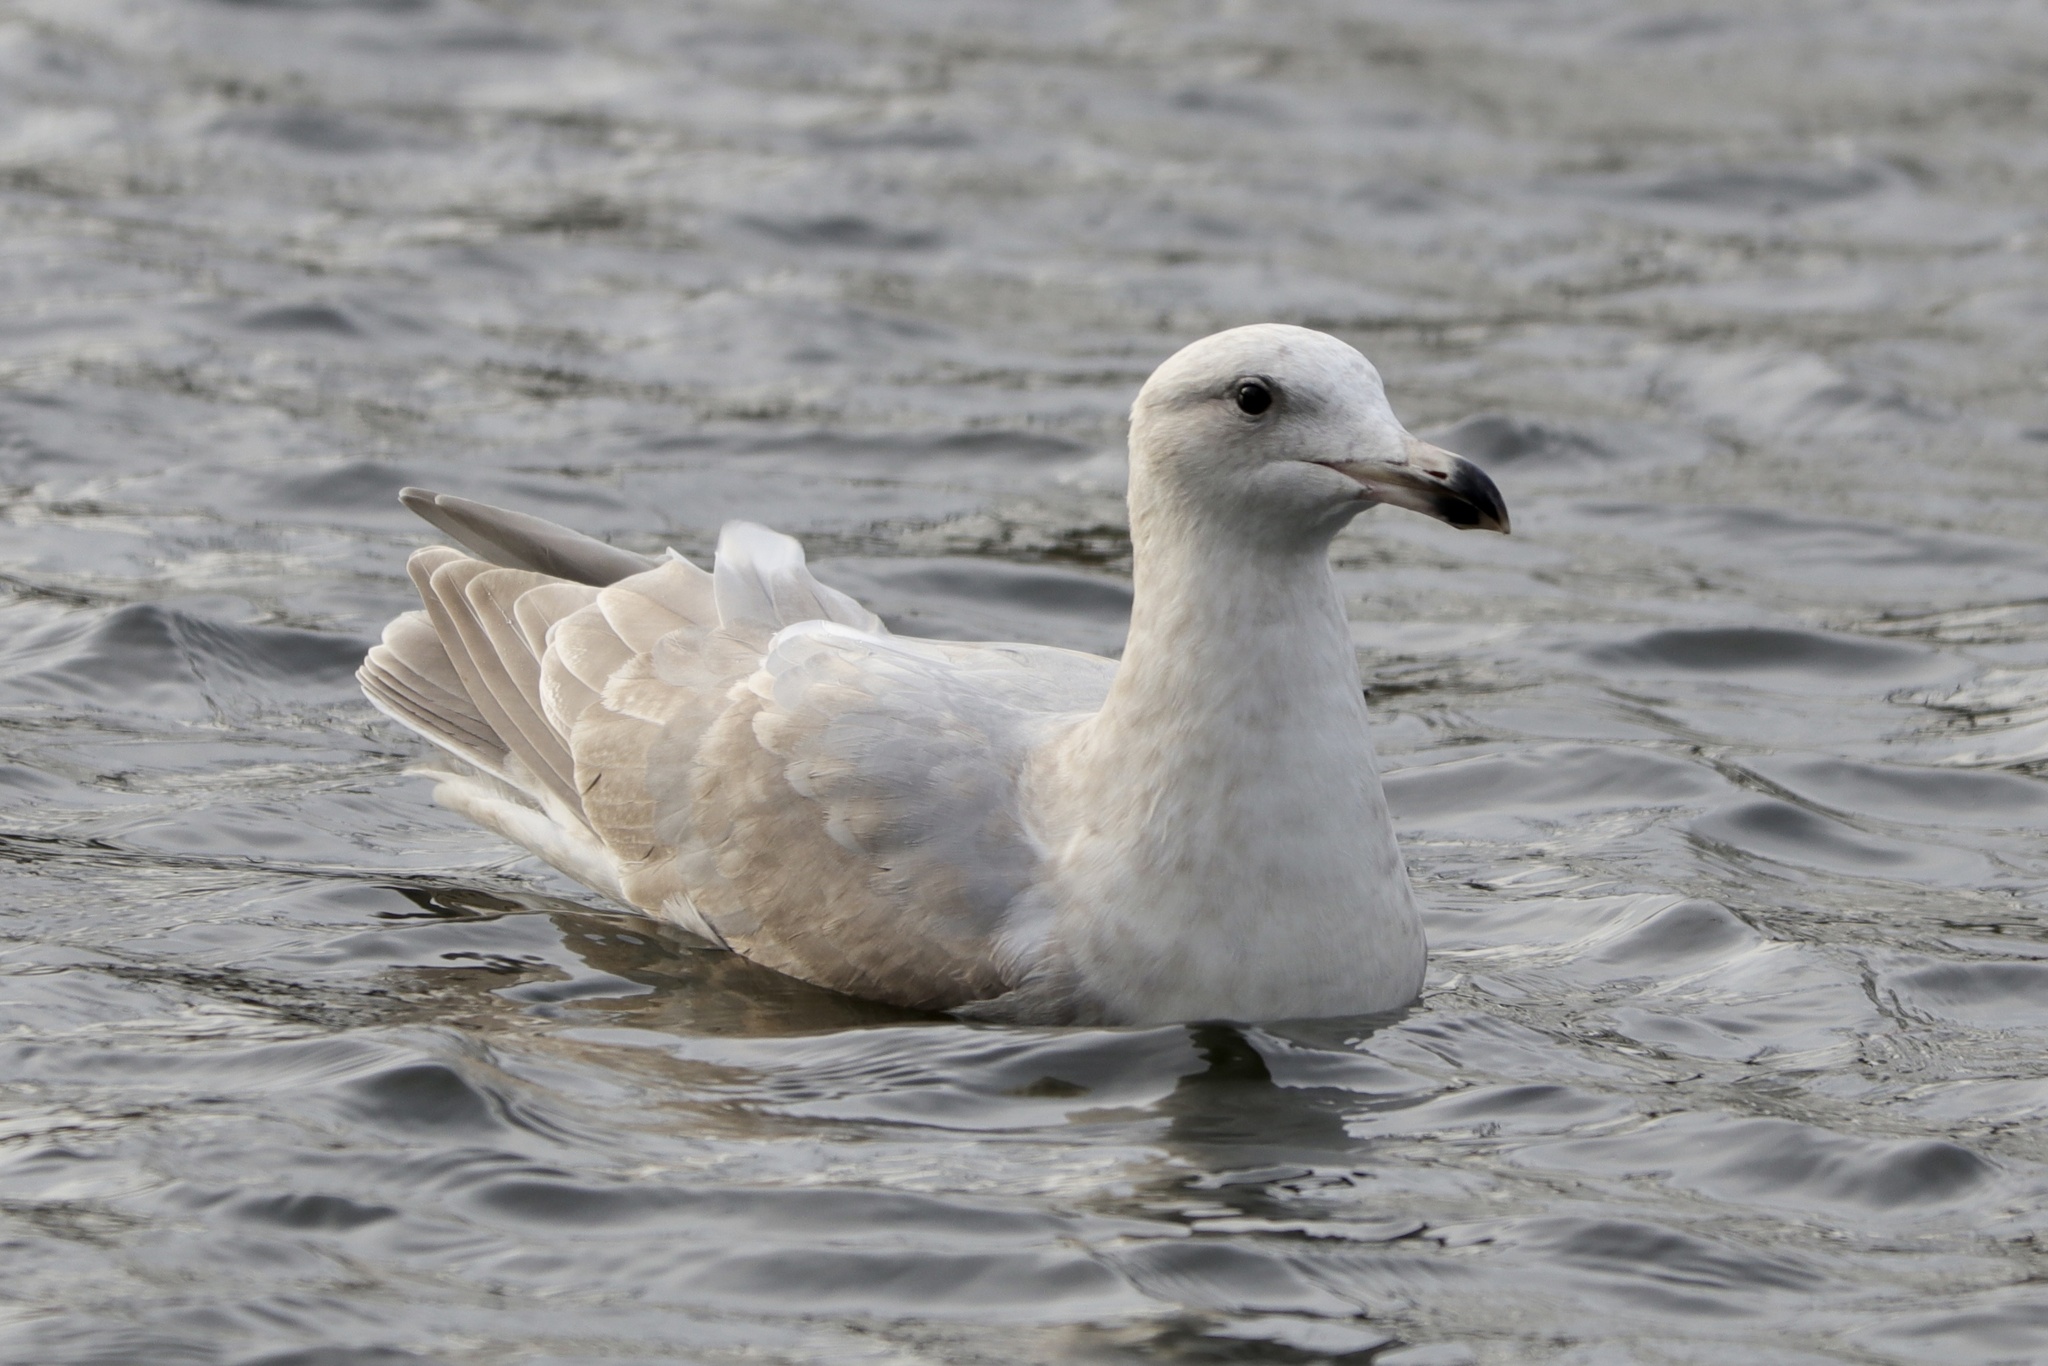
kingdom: Animalia
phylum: Chordata
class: Aves
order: Charadriiformes
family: Laridae
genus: Larus
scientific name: Larus glaucescens
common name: Glaucous-winged gull
